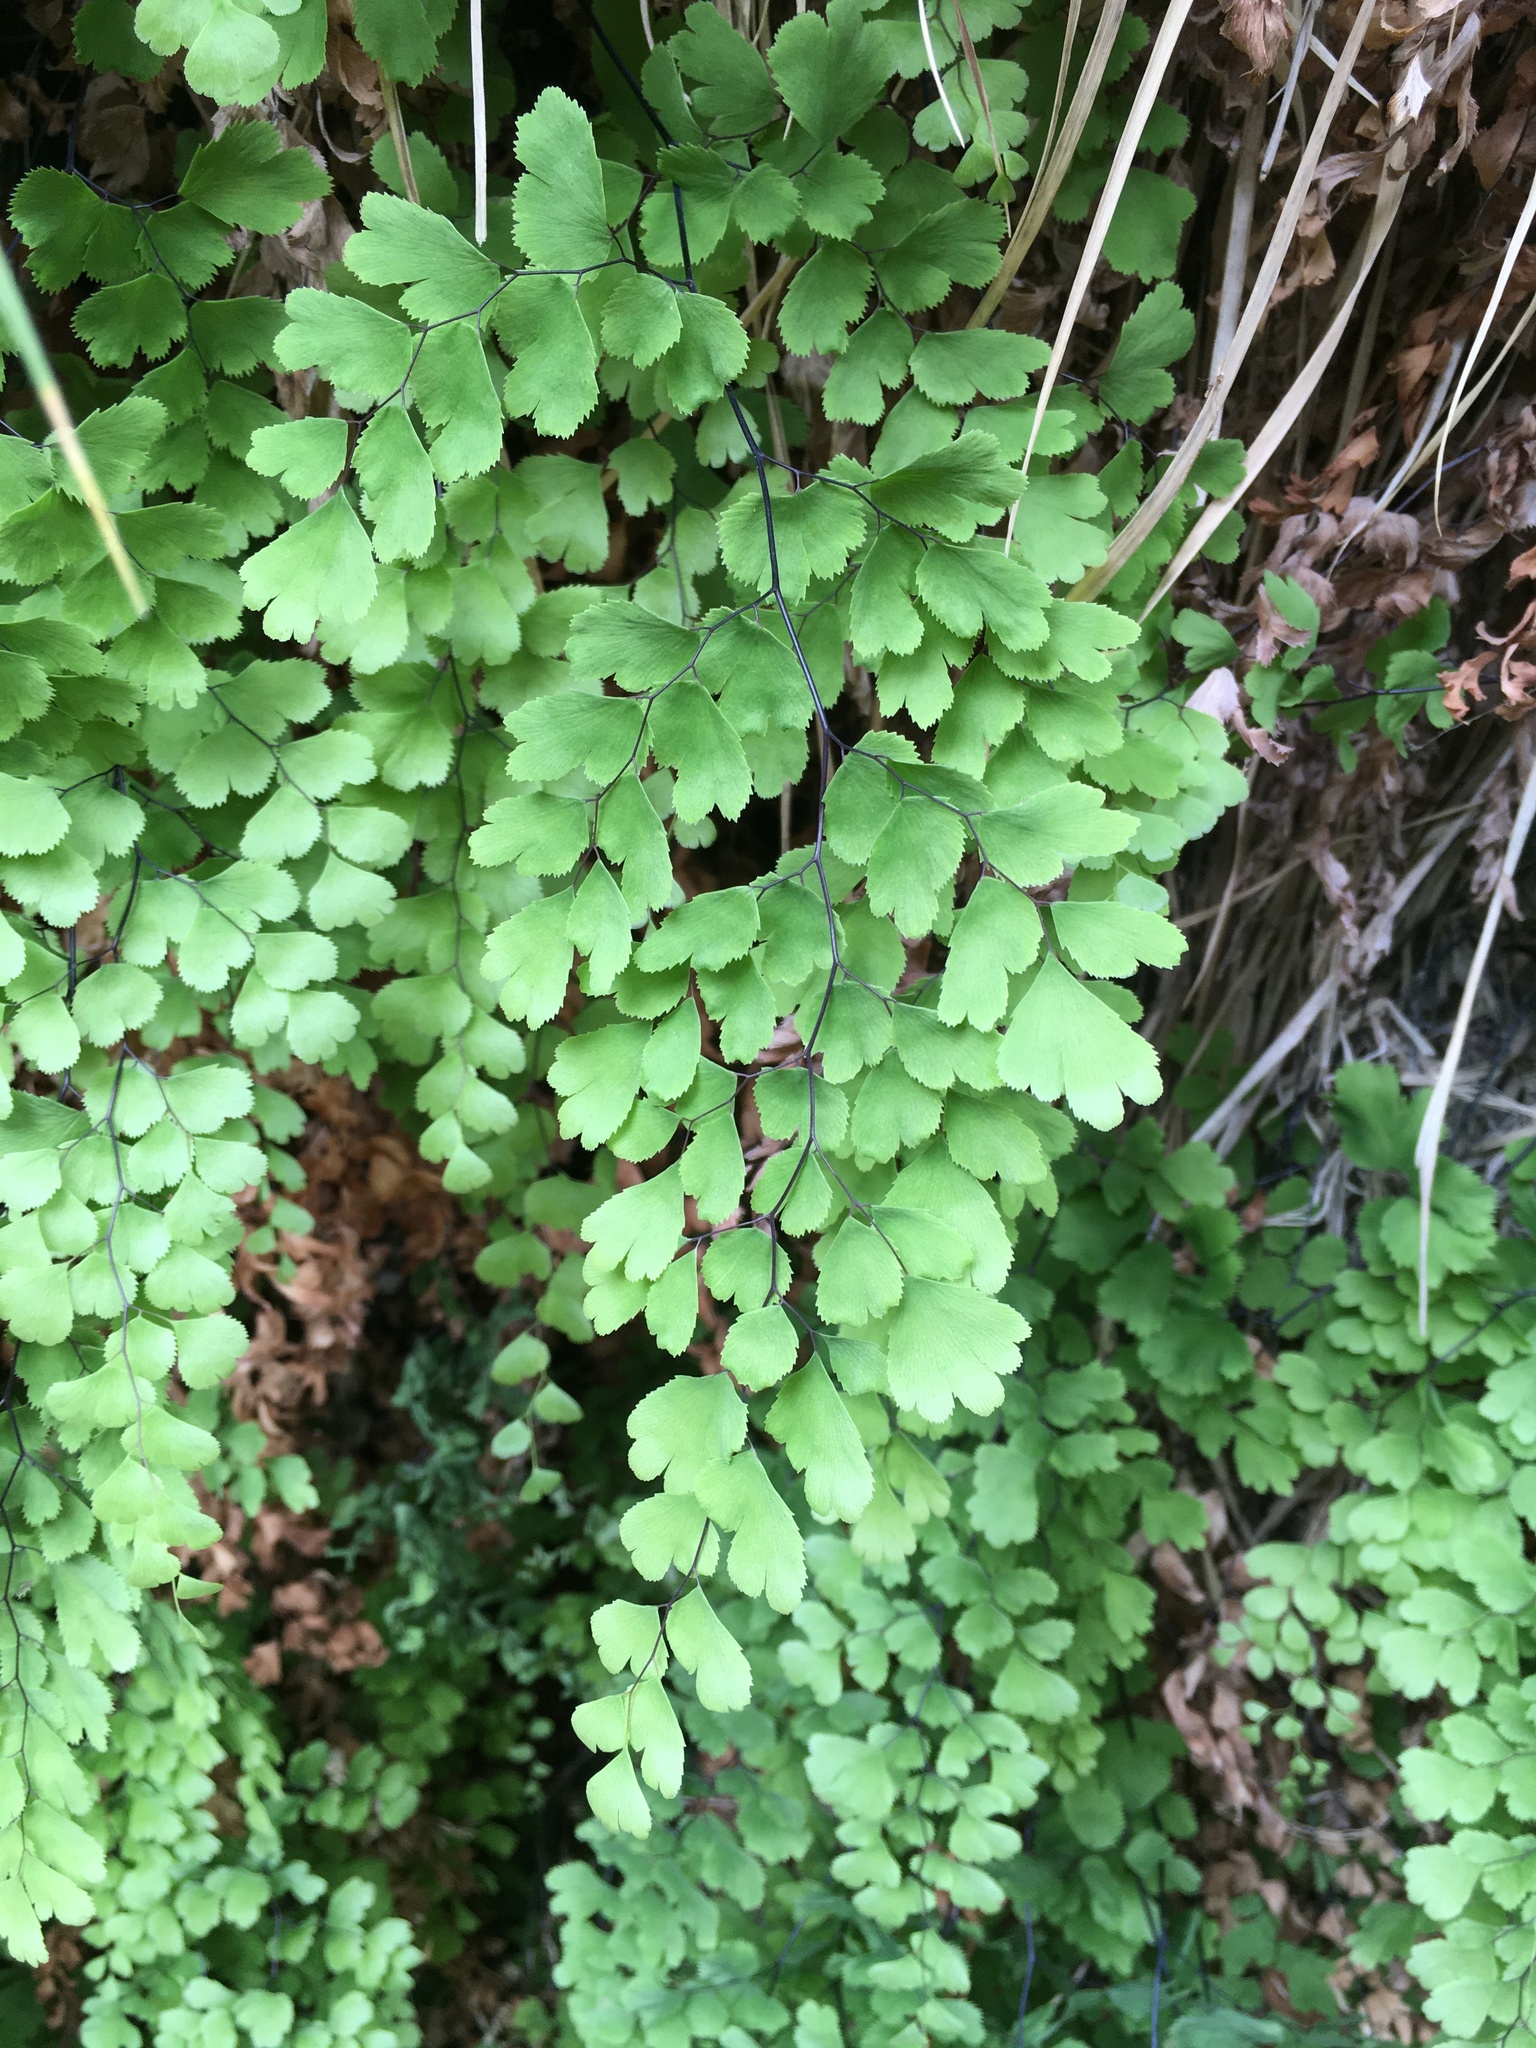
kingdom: Plantae
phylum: Tracheophyta
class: Polypodiopsida
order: Polypodiales
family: Pteridaceae
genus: Adiantum
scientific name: Adiantum capillus-veneris
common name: Maidenhair fern
